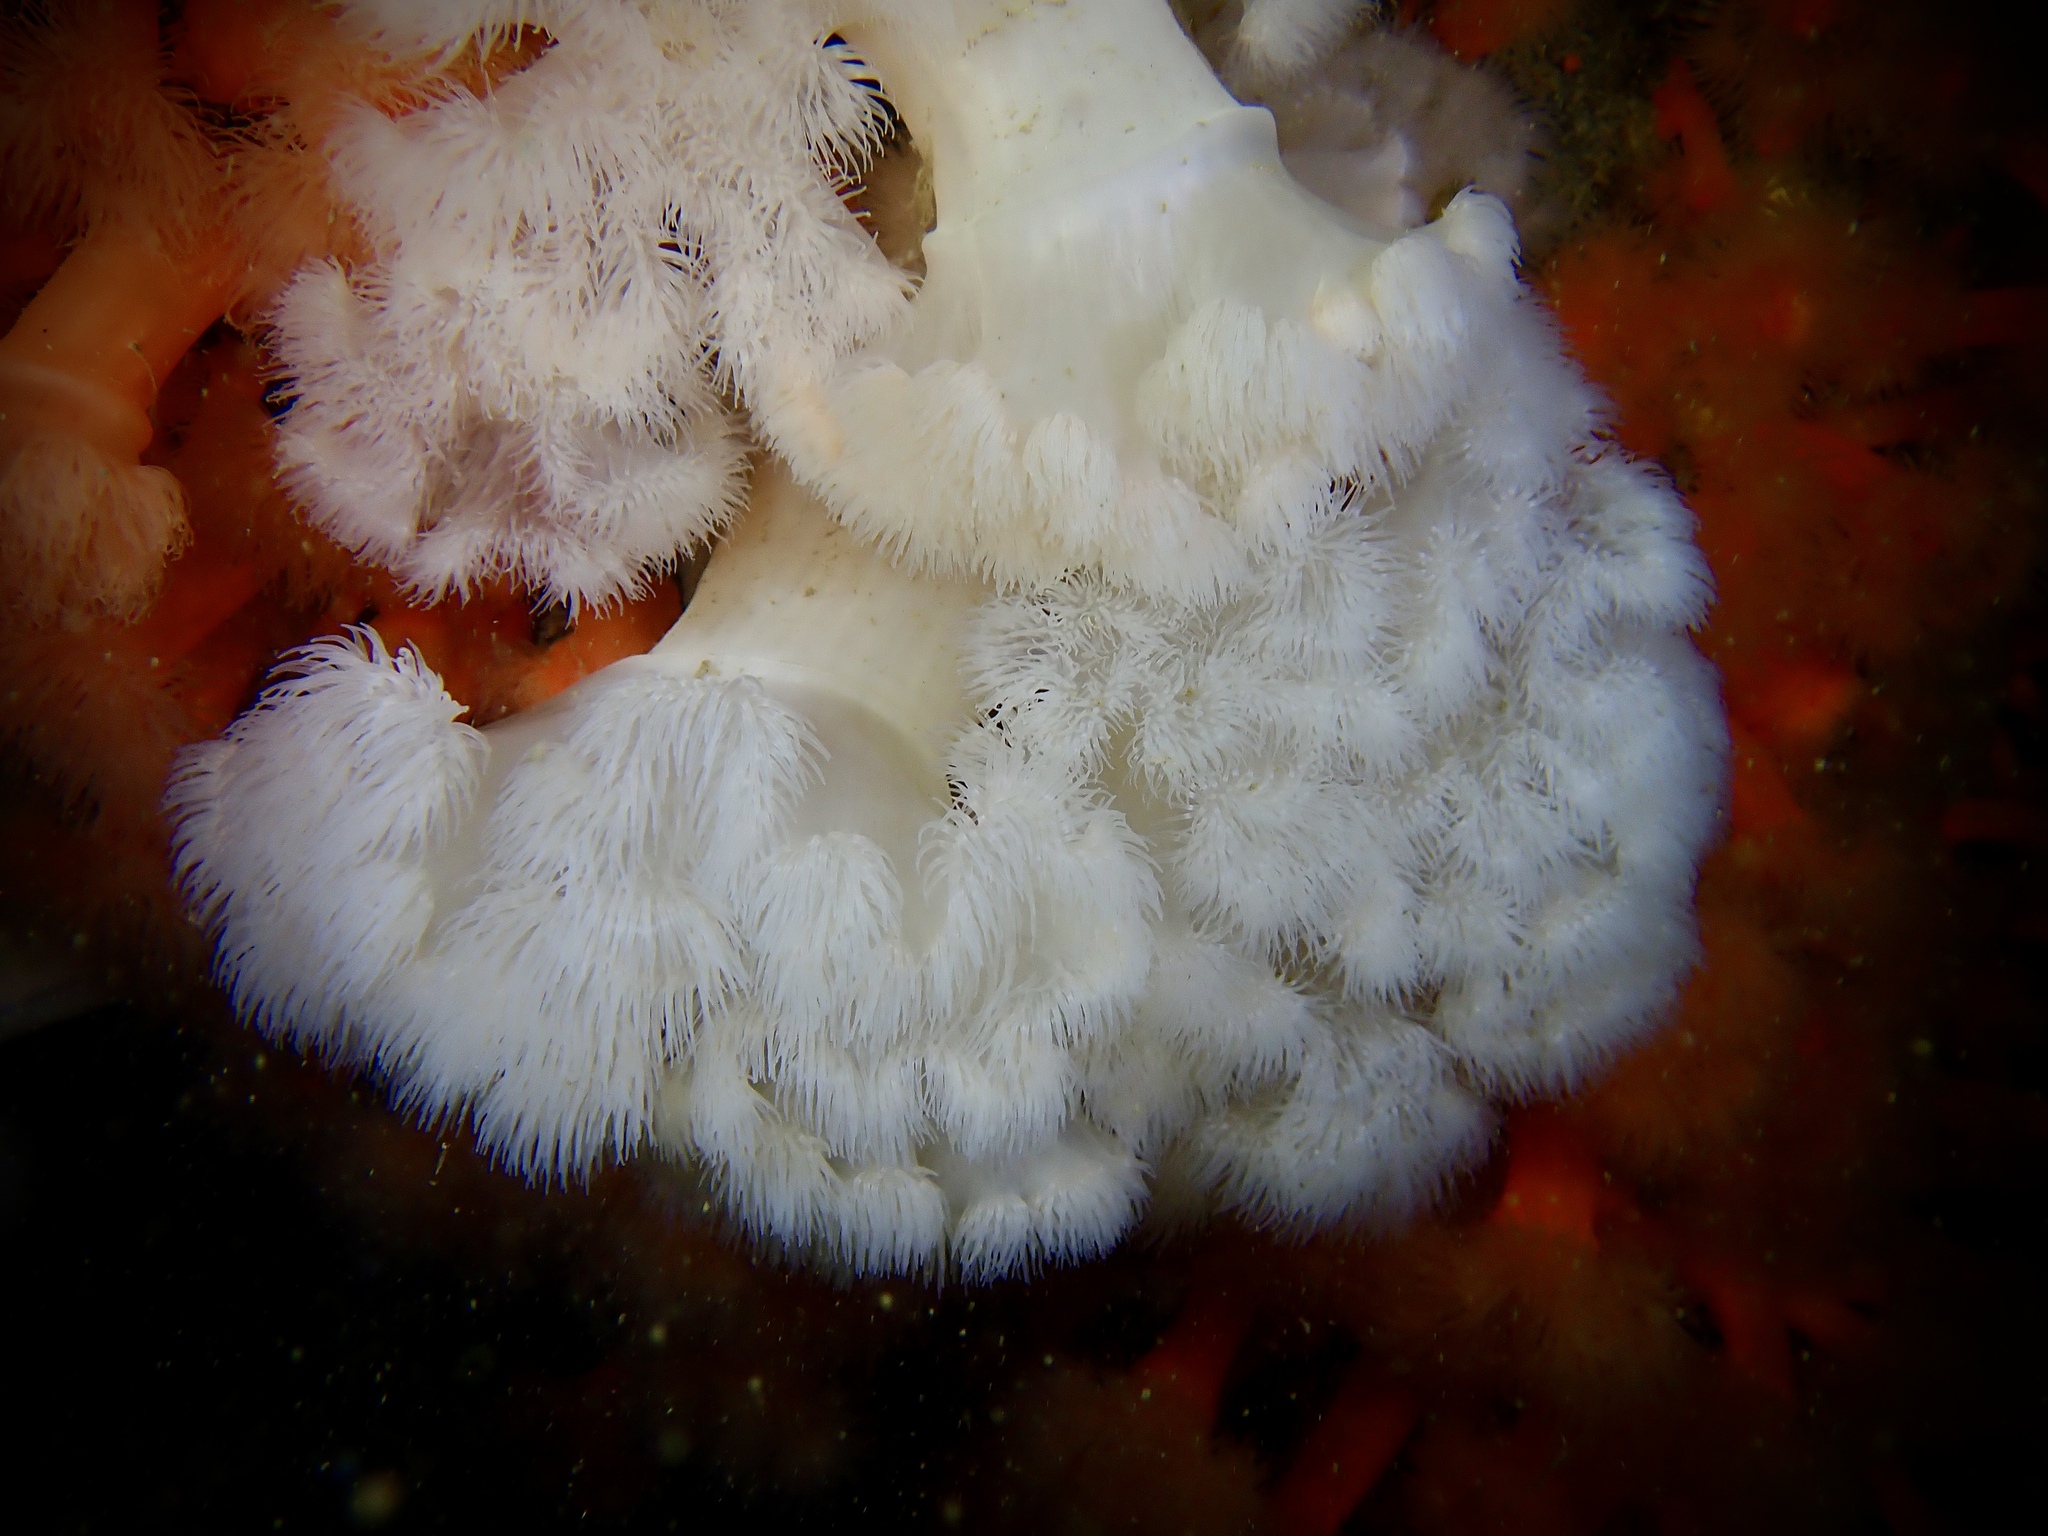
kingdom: Animalia
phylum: Cnidaria
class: Anthozoa
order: Actiniaria
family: Metridiidae
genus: Metridium
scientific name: Metridium senile
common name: Clonal plumose anemone
